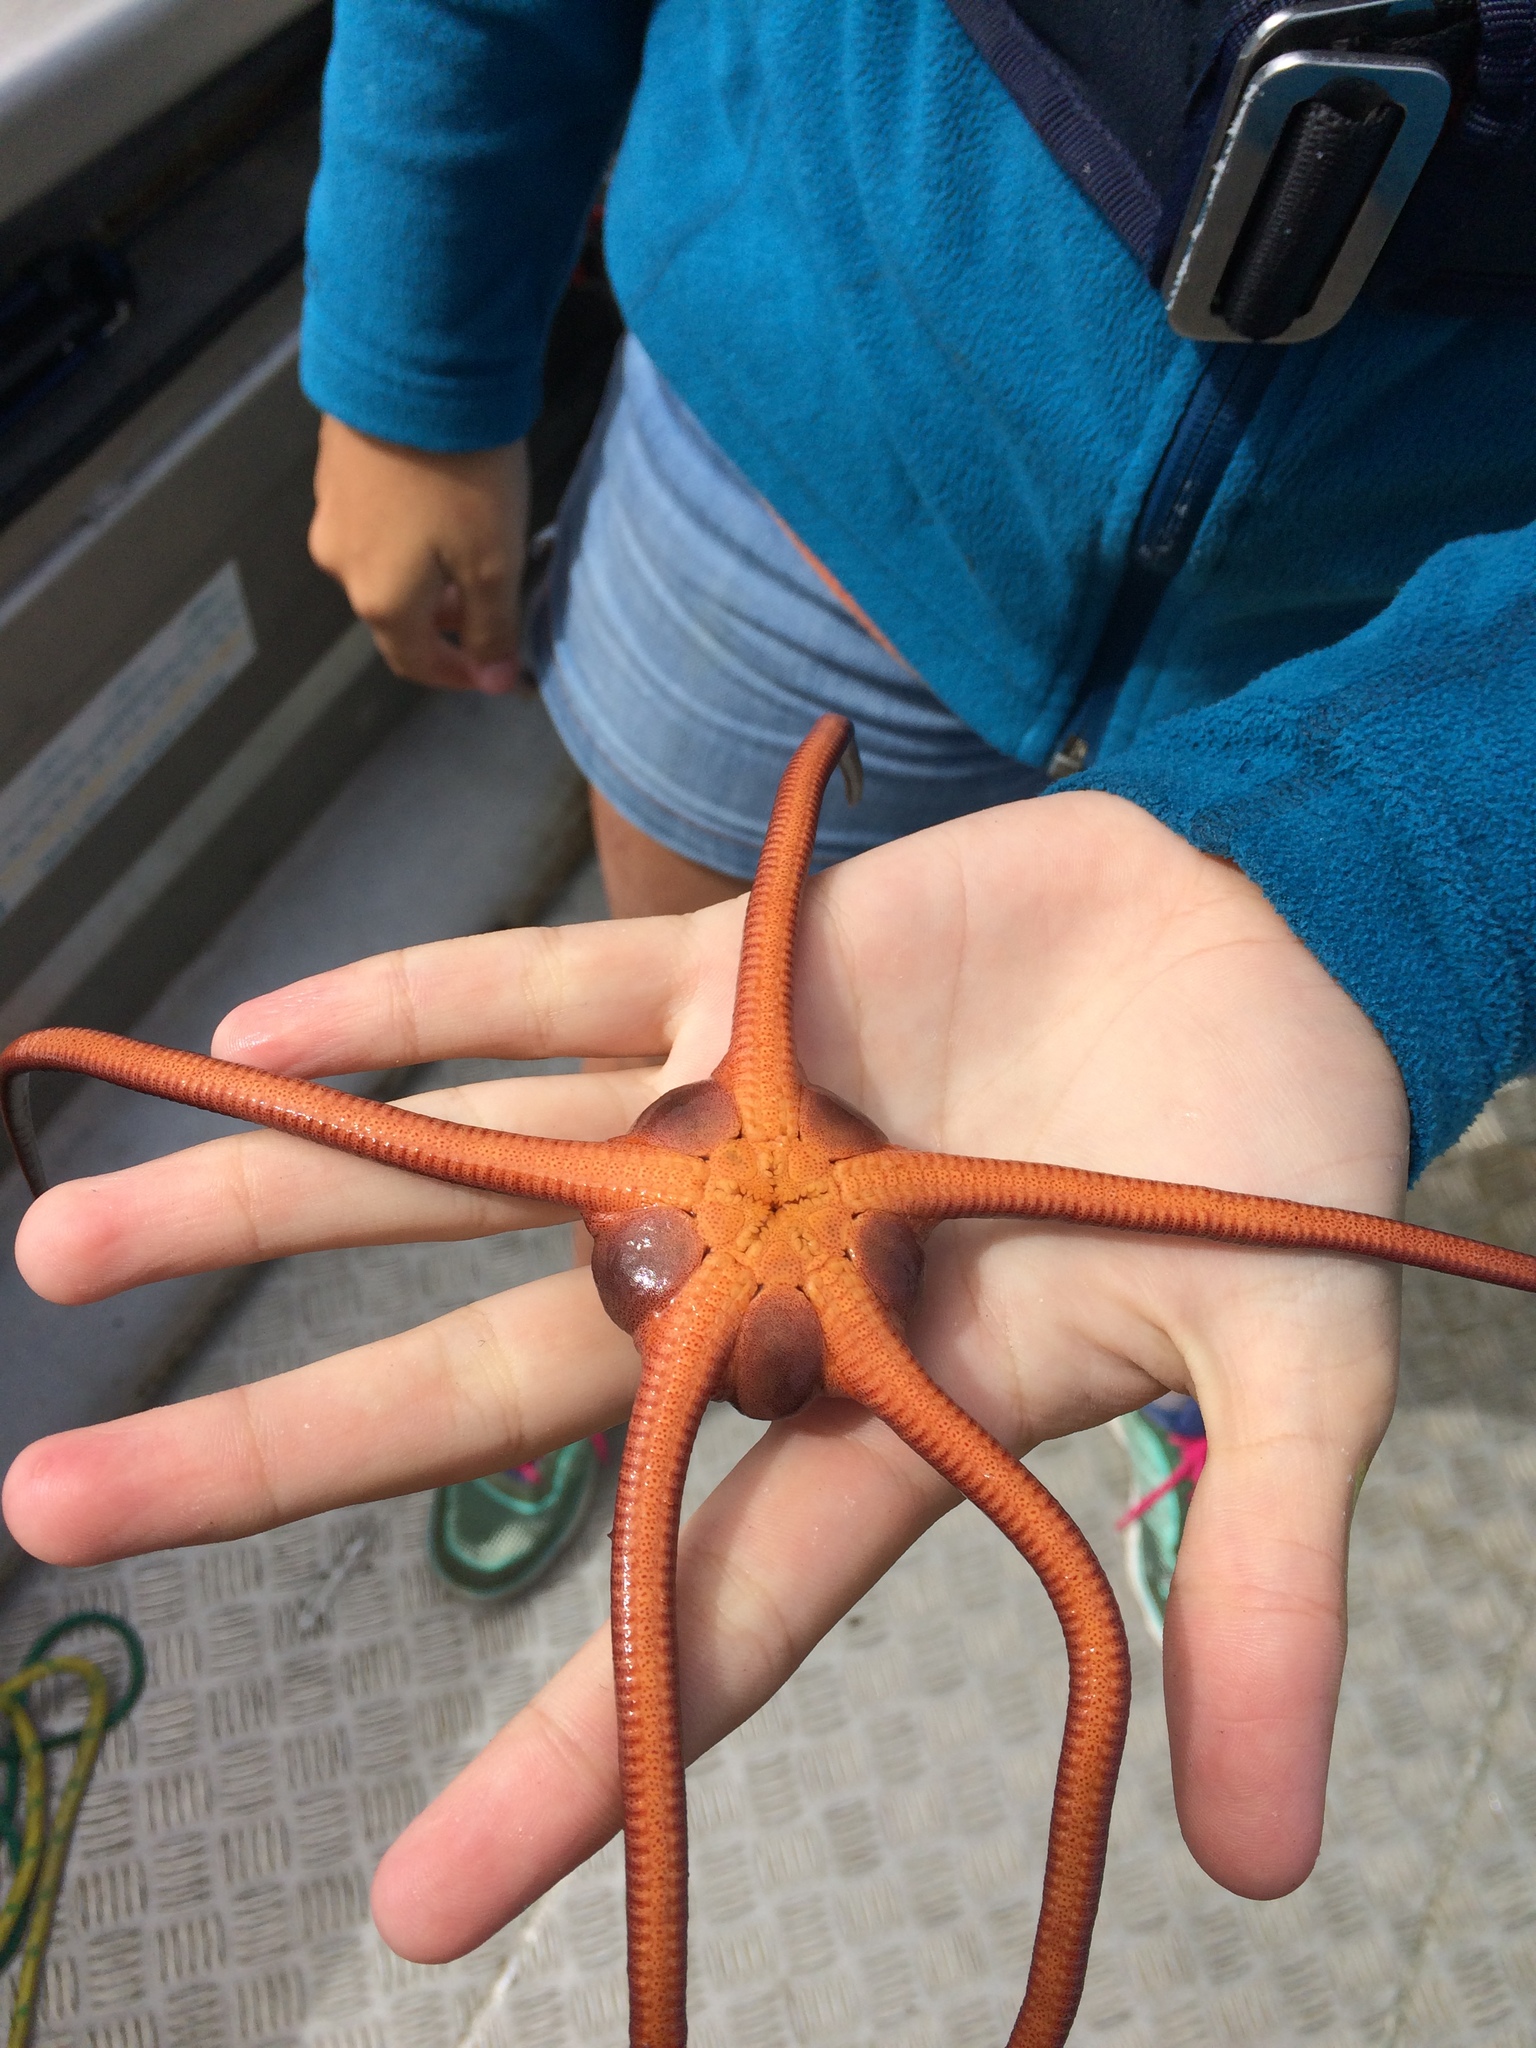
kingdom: Animalia
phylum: Echinodermata
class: Ophiuroidea
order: Ophiacanthida
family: Ophiodermatidae
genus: Ophiopsammus
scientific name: Ophiopsammus maculata
